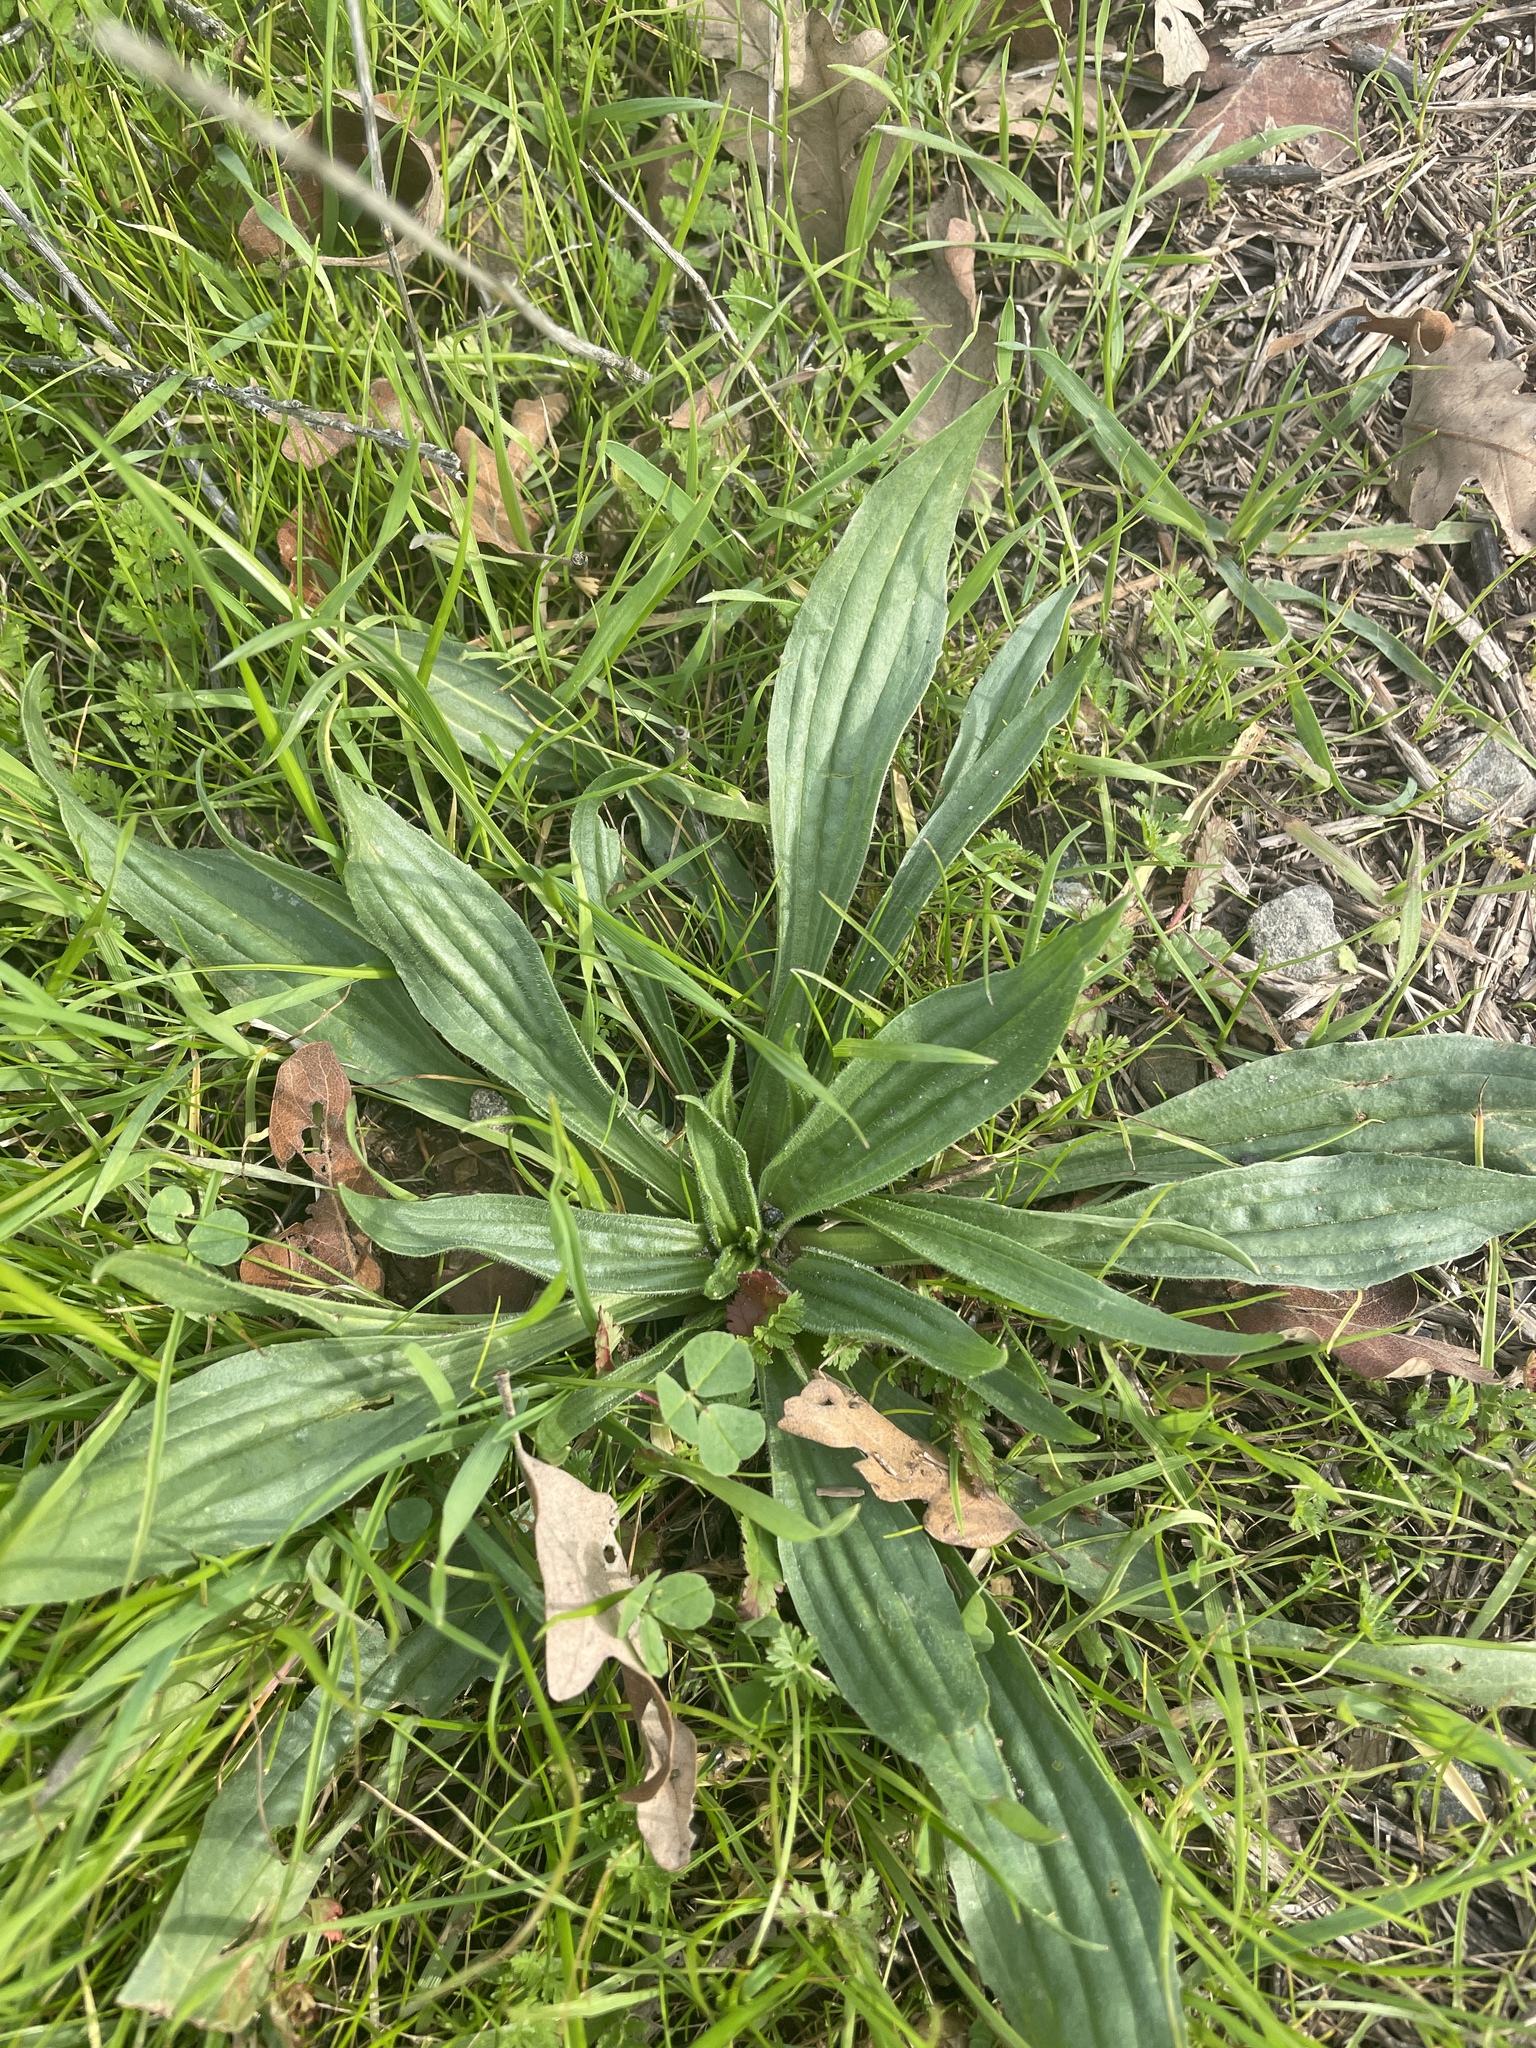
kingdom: Plantae
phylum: Tracheophyta
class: Magnoliopsida
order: Lamiales
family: Plantaginaceae
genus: Plantago
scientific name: Plantago lanceolata
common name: Ribwort plantain
